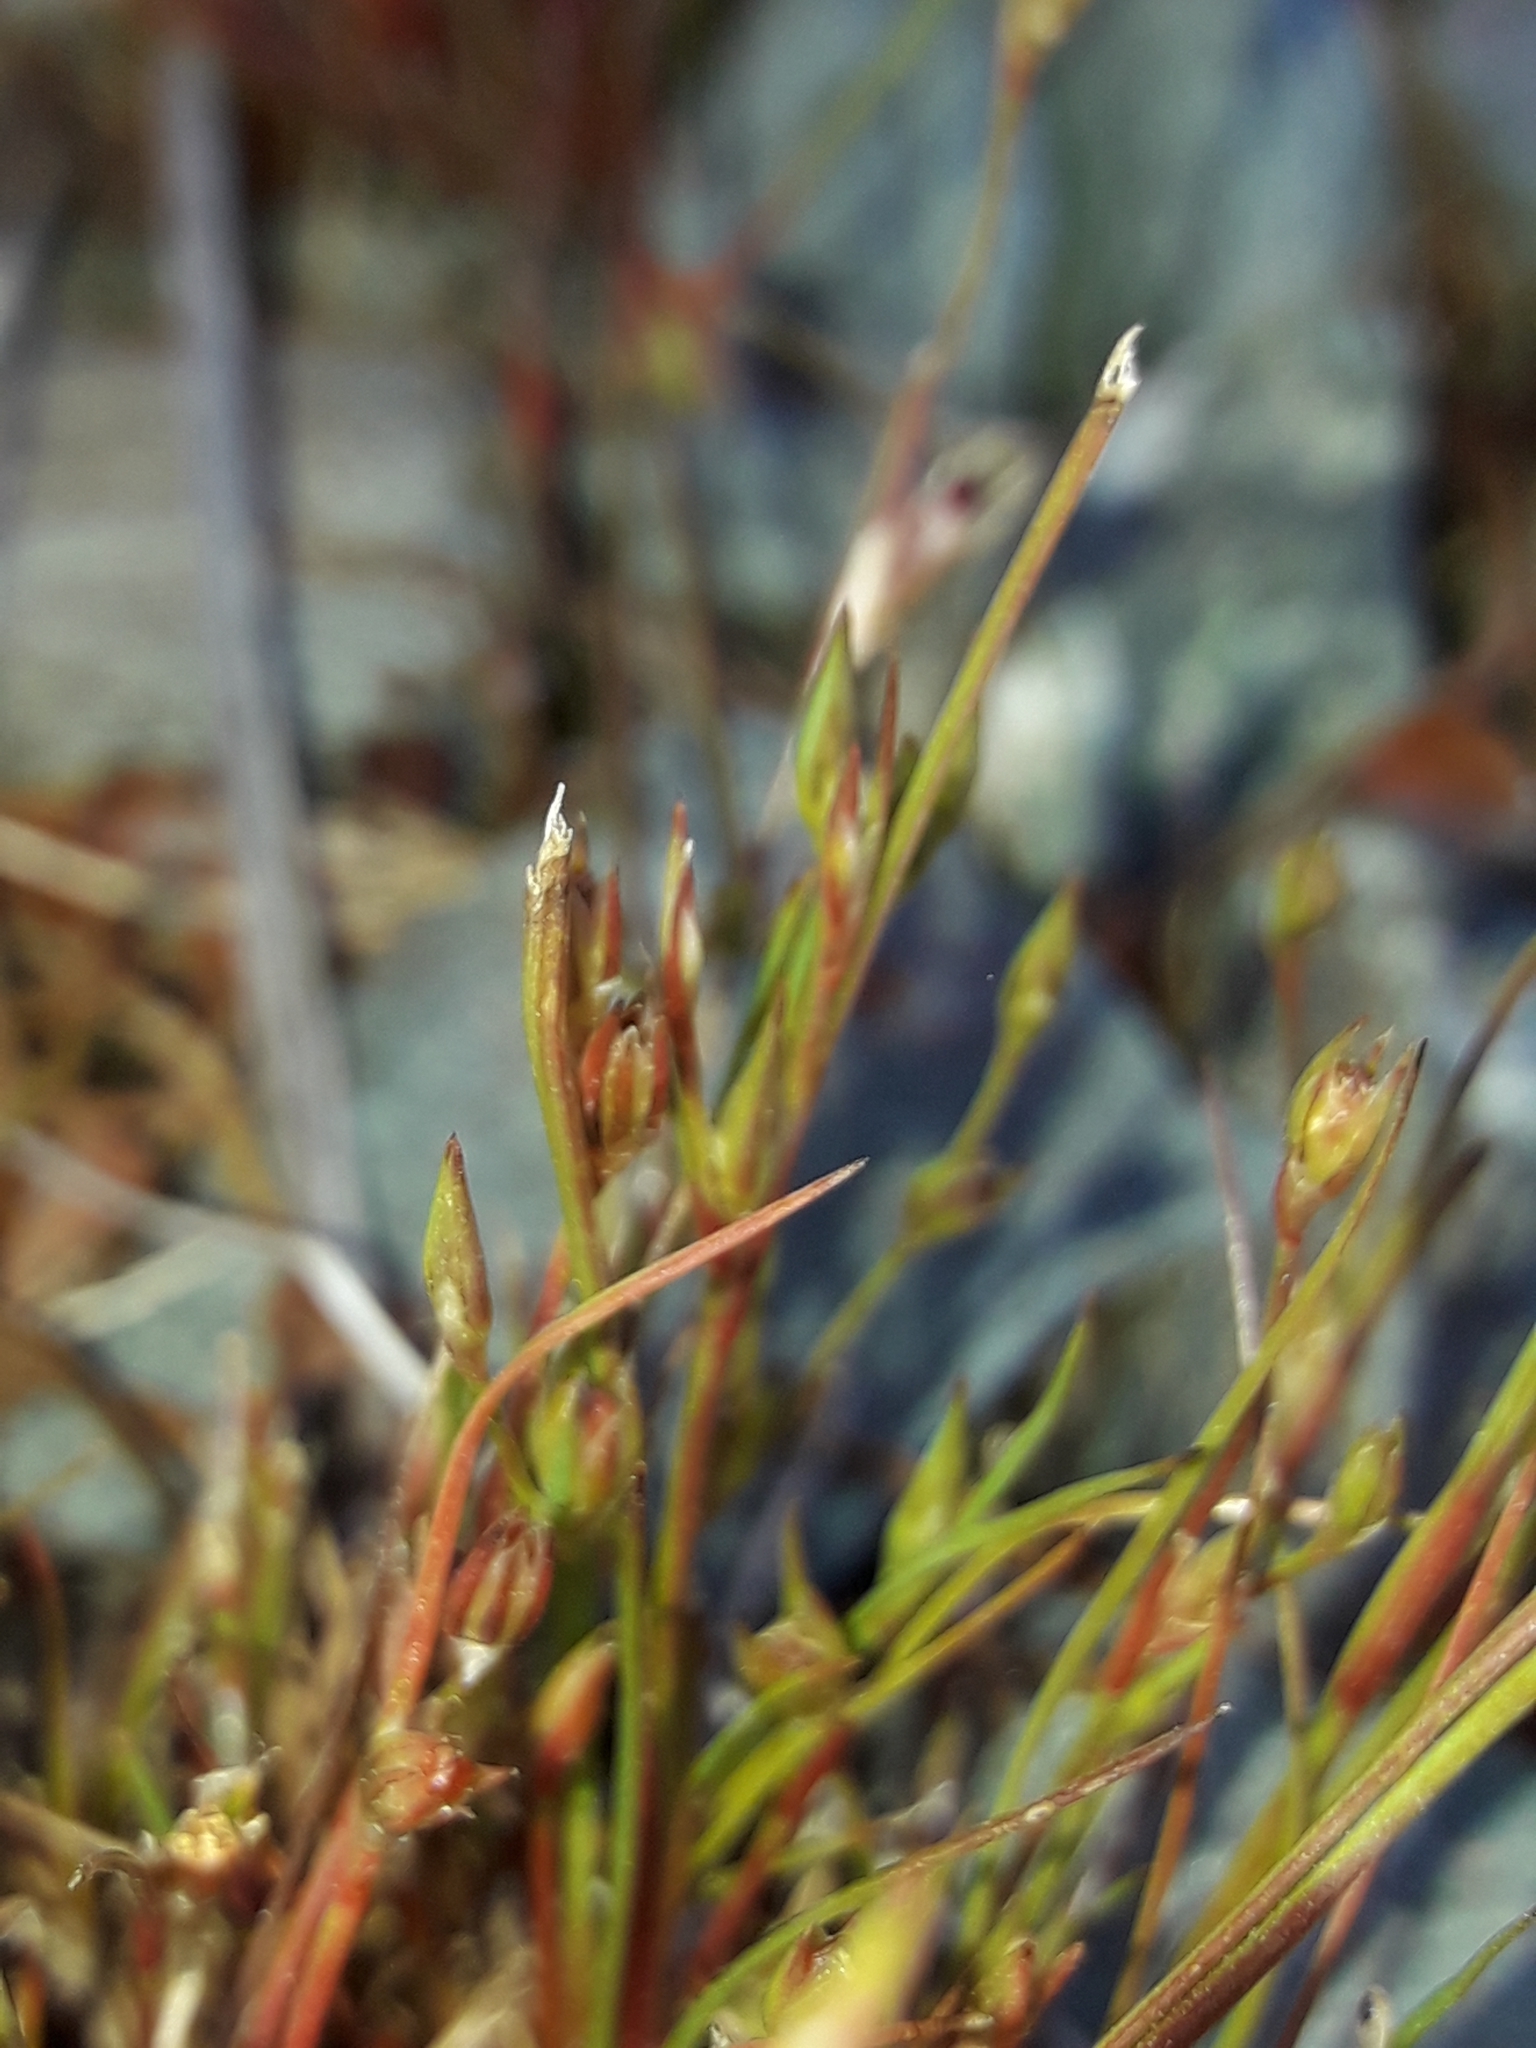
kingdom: Plantae
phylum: Tracheophyta
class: Liliopsida
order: Poales
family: Juncaceae
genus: Juncus
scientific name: Juncus bufonius
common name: Toad rush
